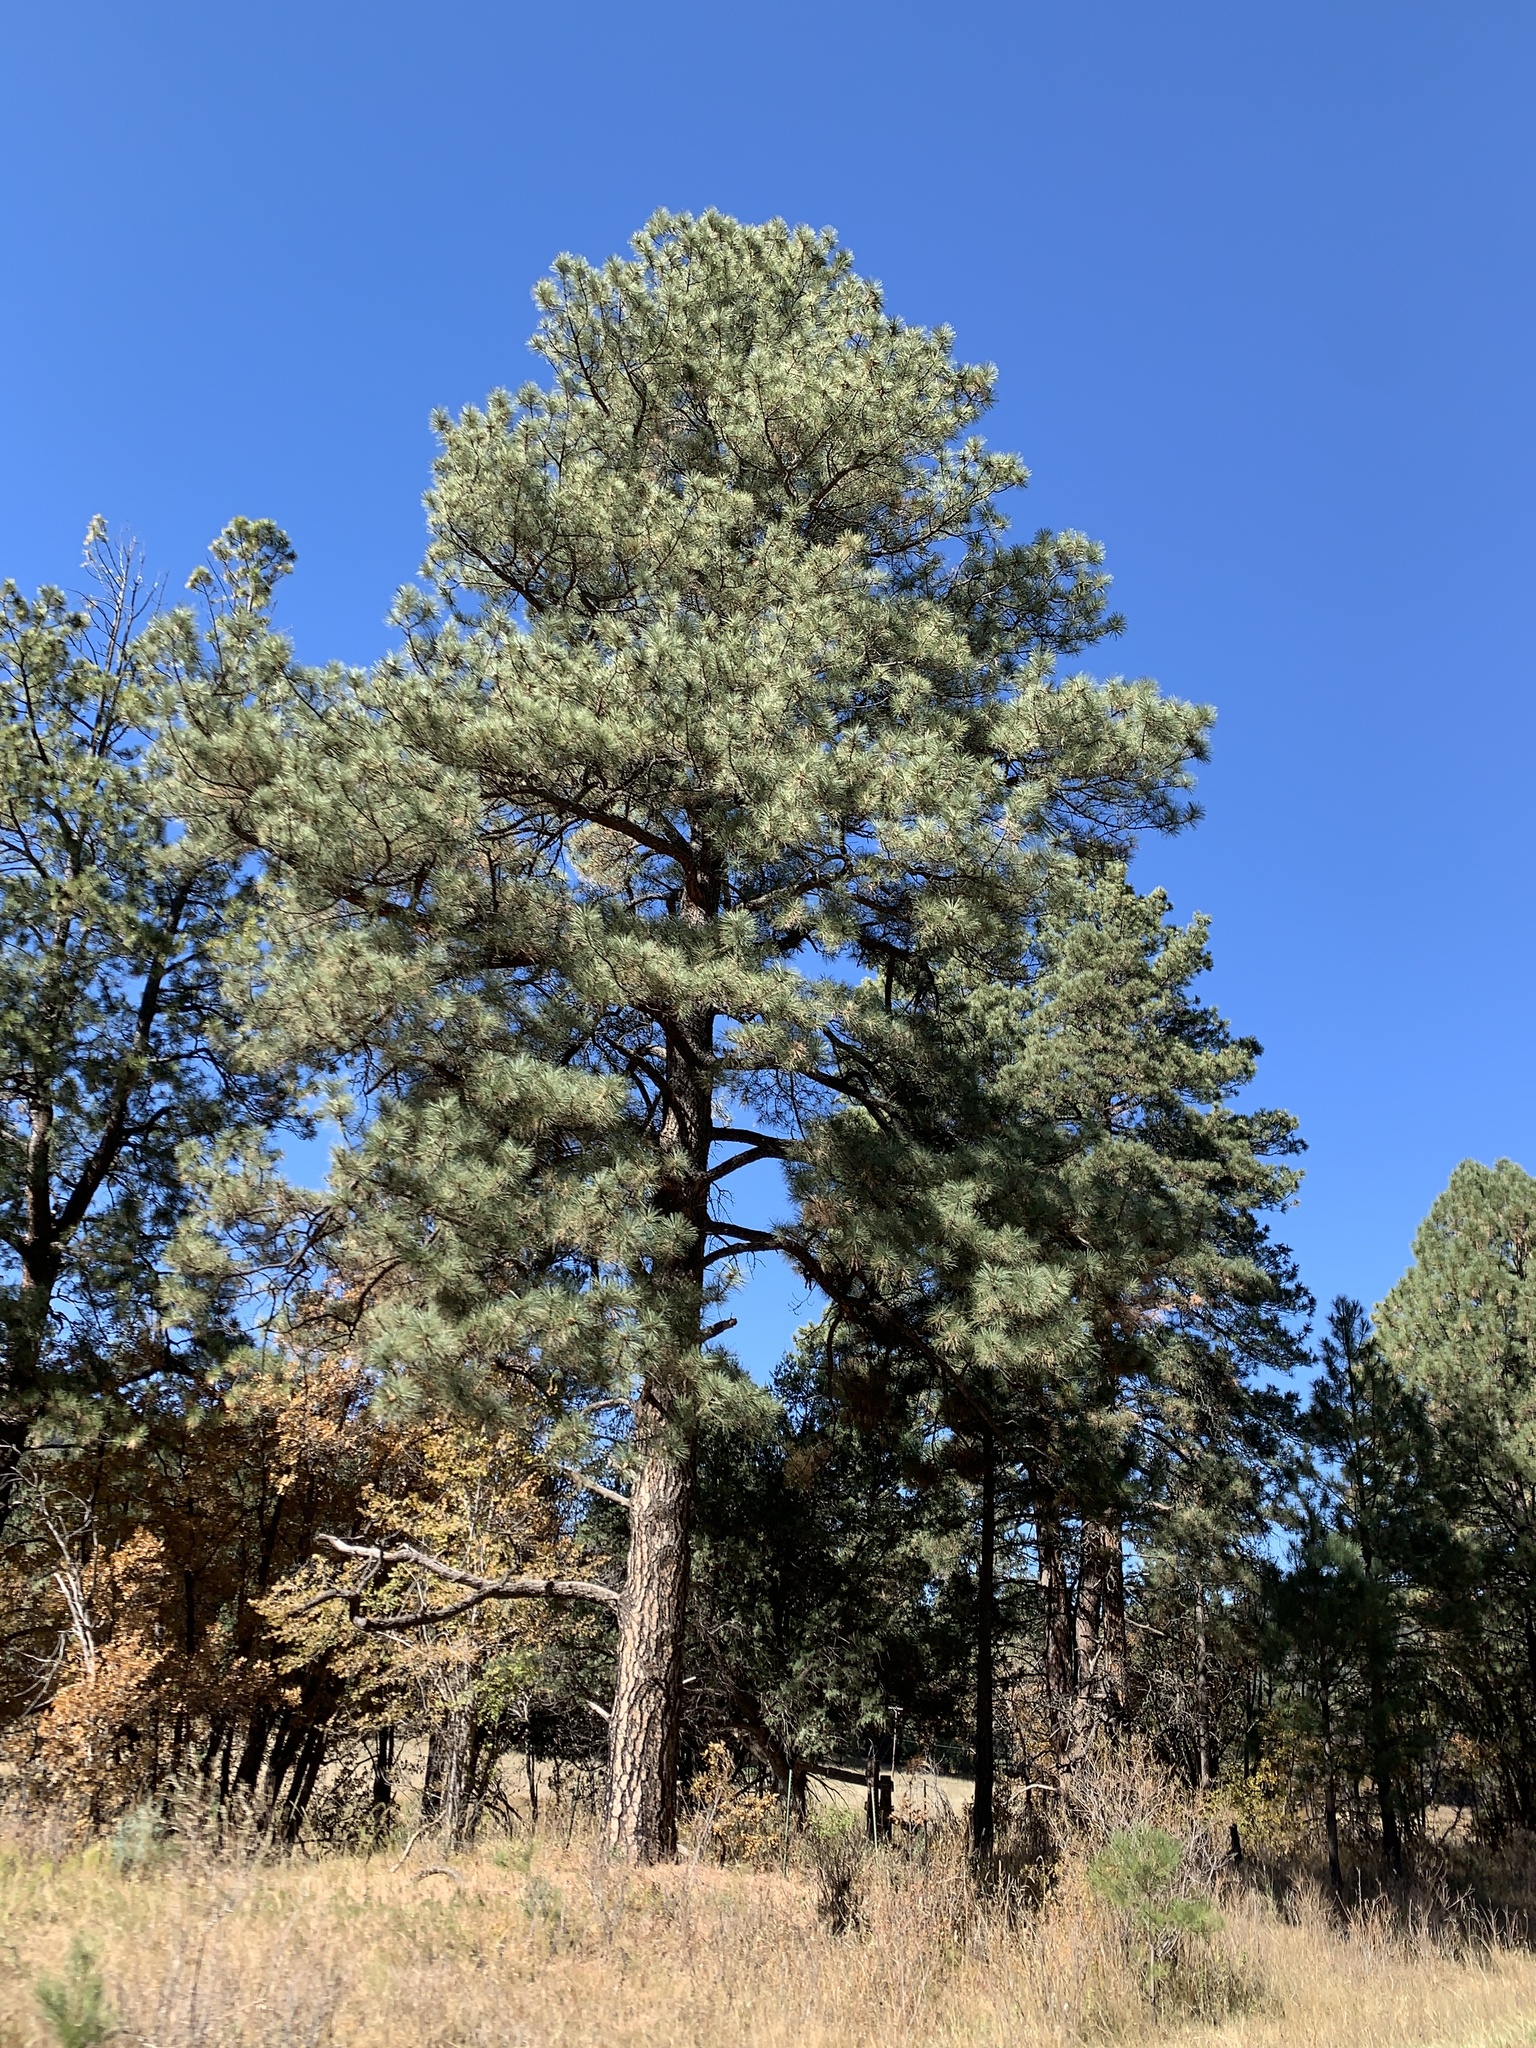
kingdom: Plantae
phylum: Tracheophyta
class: Pinopsida
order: Pinales
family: Pinaceae
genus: Pinus
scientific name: Pinus ponderosa
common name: Western yellow-pine
